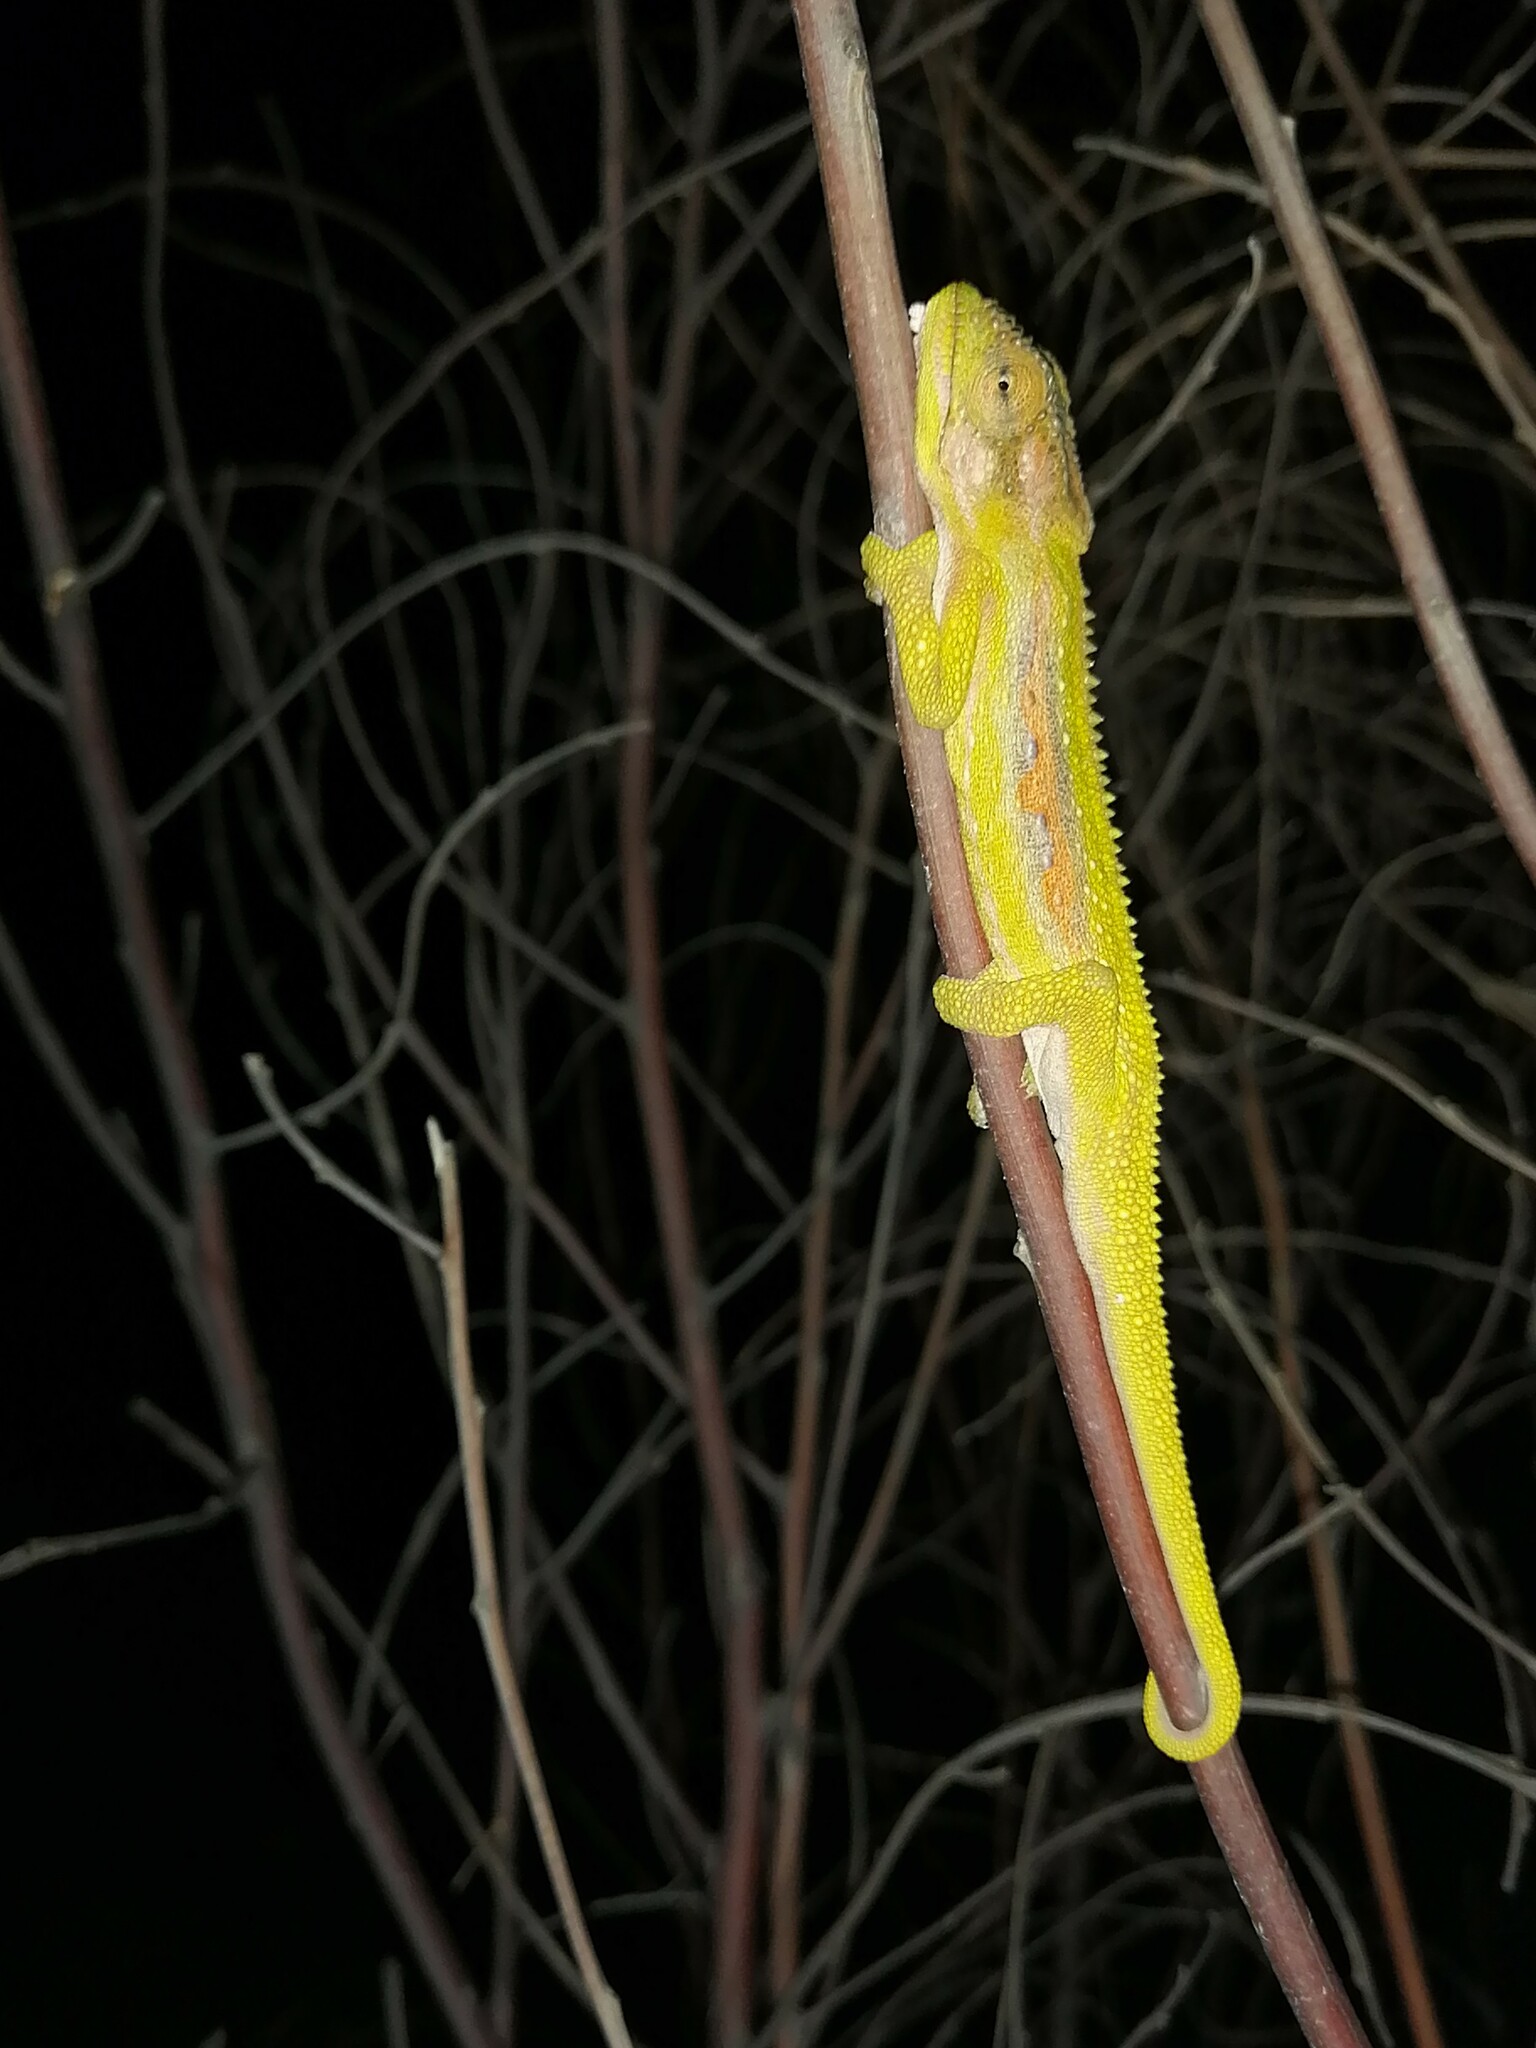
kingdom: Animalia
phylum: Chordata
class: Squamata
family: Chamaeleonidae
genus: Bradypodion
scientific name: Bradypodion pumilum
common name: Cape dwarf chameleon
